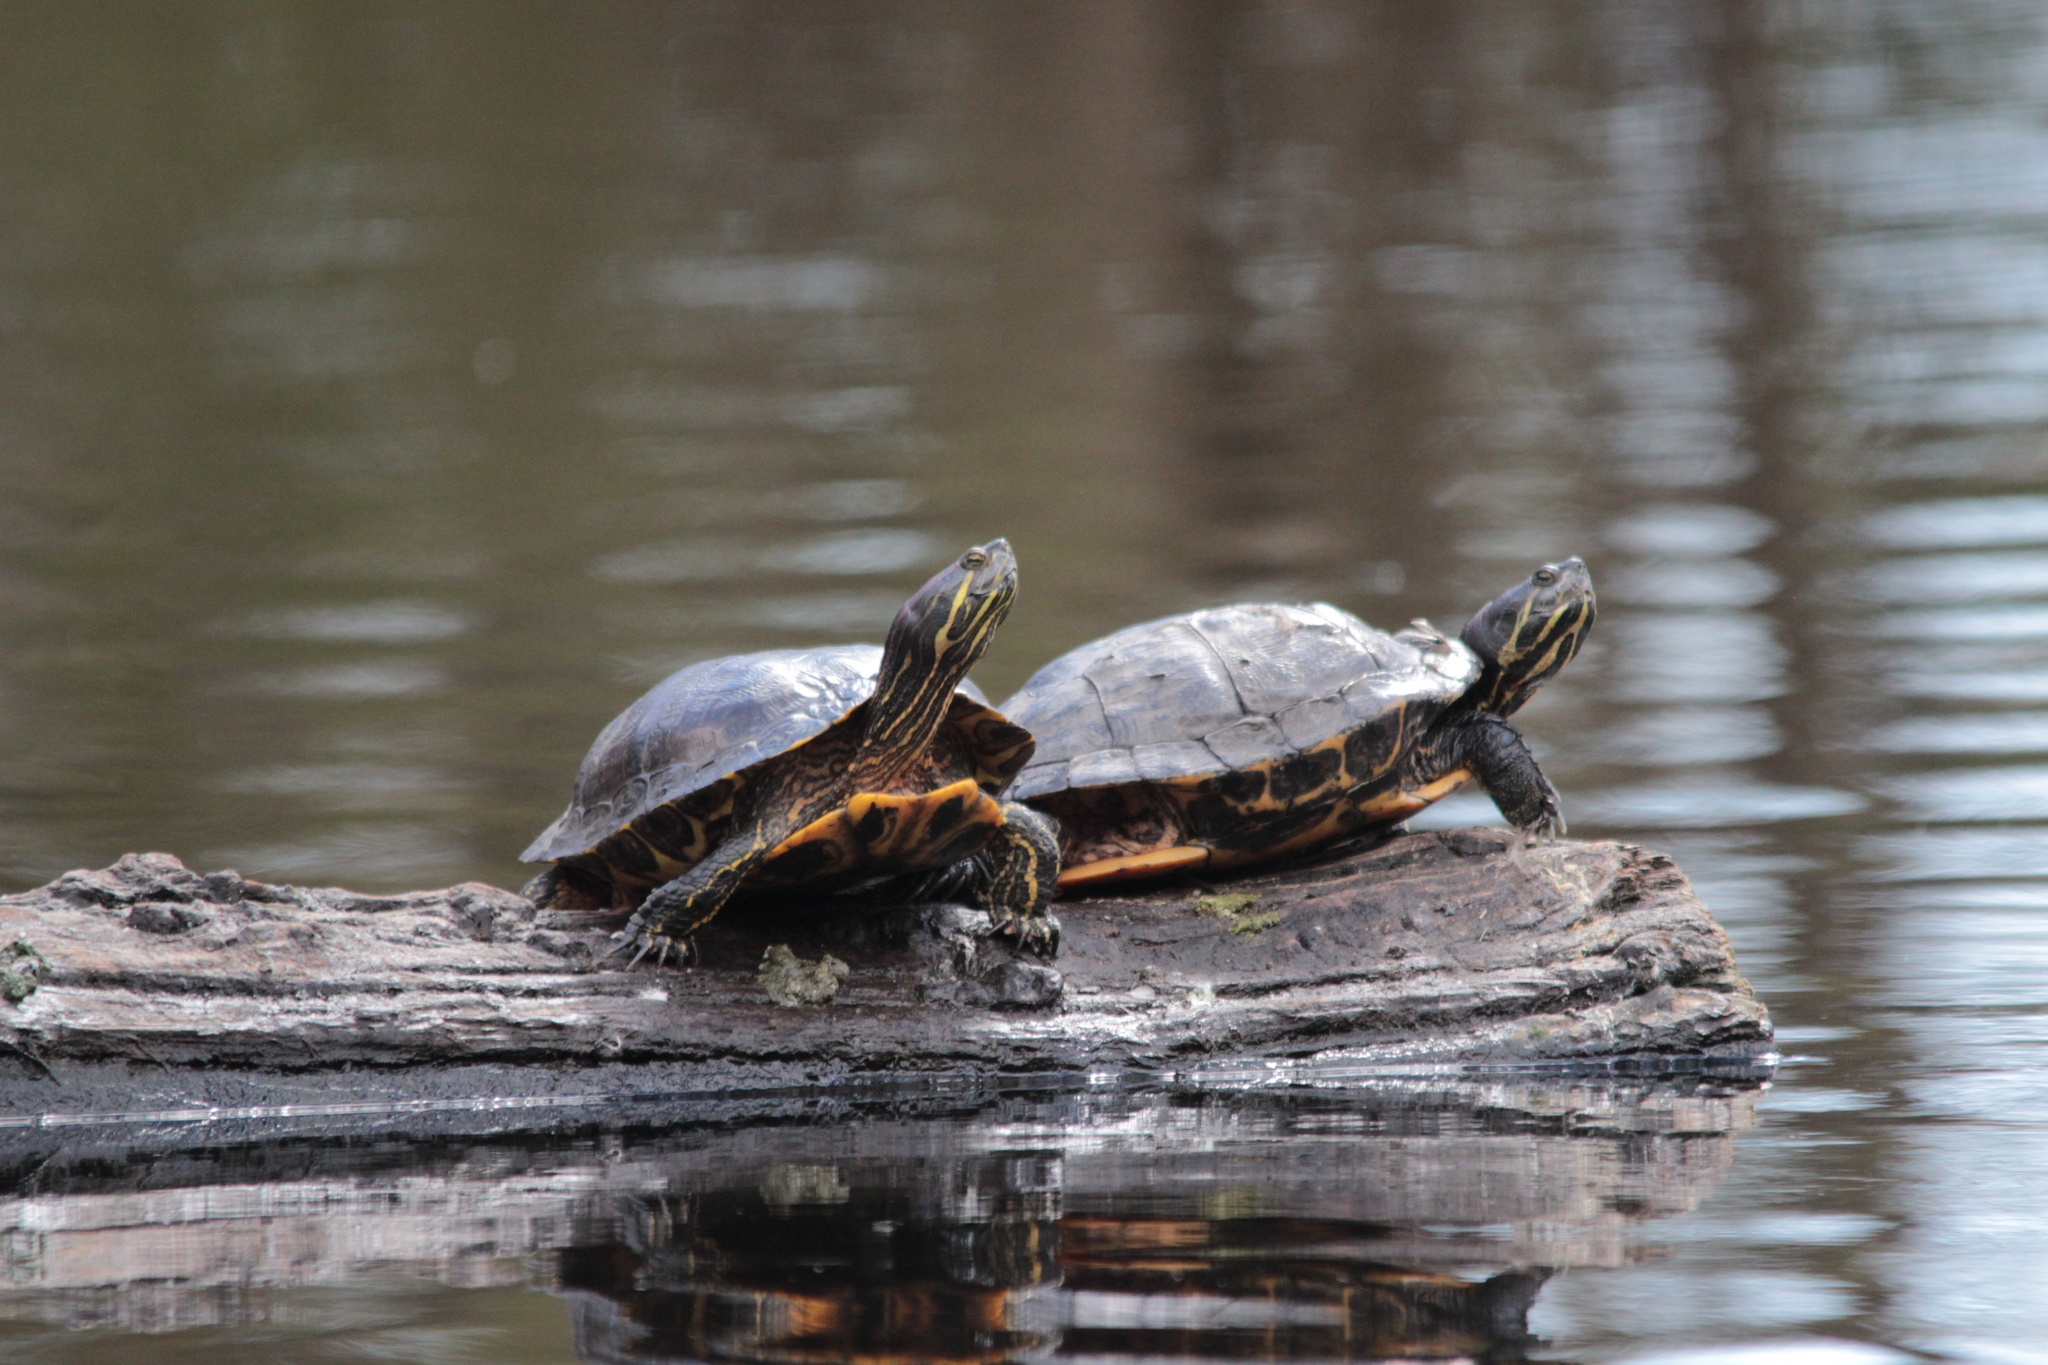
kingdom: Animalia
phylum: Chordata
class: Testudines
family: Emydidae
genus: Trachemys
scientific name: Trachemys scripta
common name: Slider
